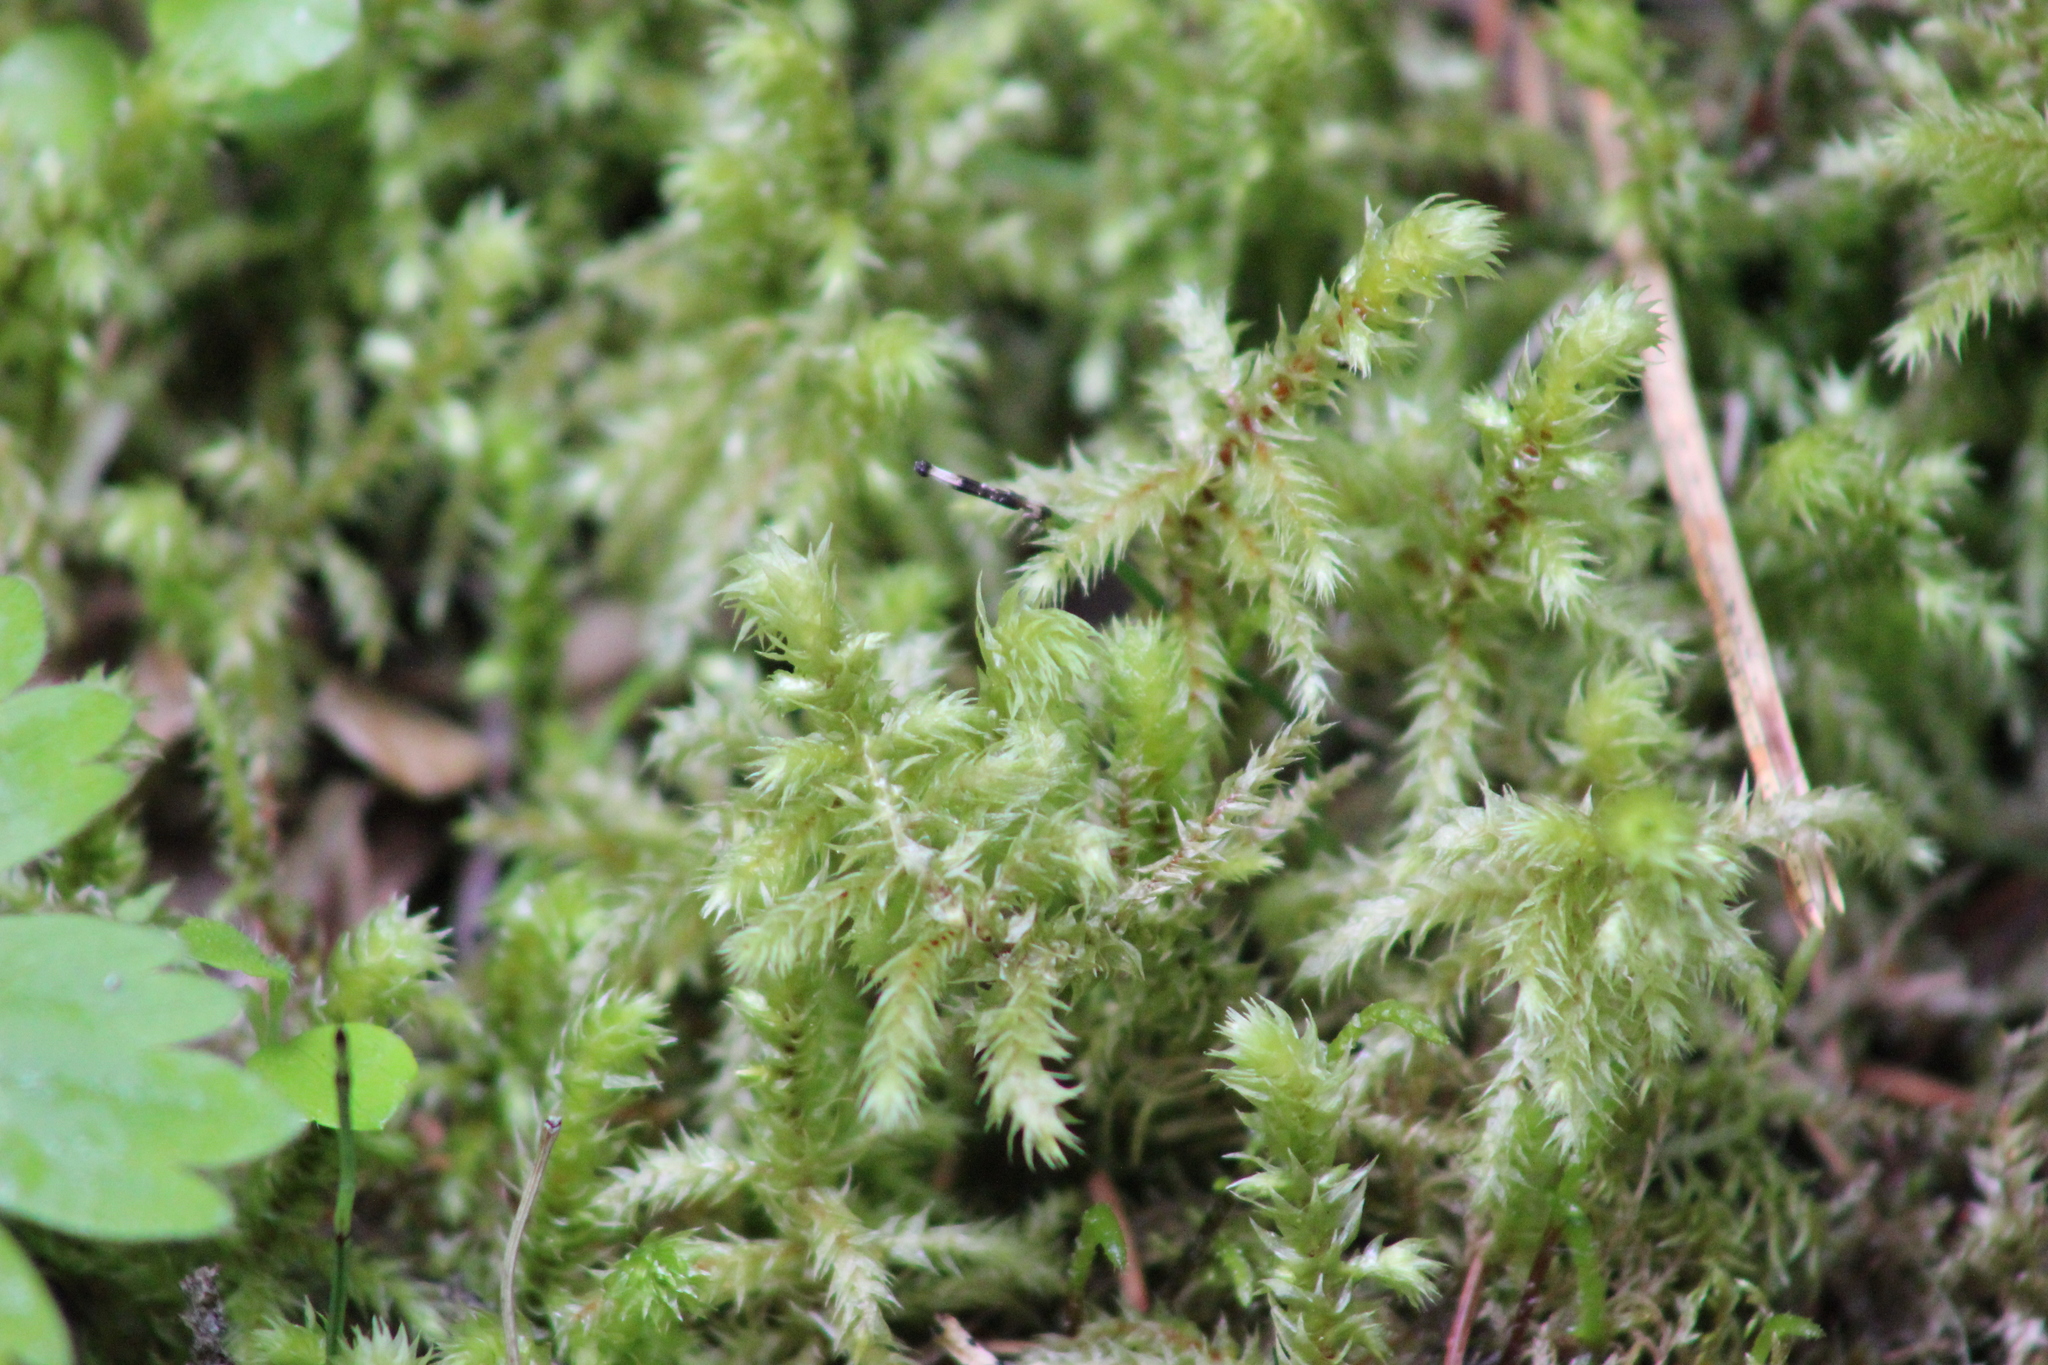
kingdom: Plantae
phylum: Bryophyta
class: Bryopsida
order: Hypnales
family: Hylocomiaceae
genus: Hylocomiadelphus
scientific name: Hylocomiadelphus triquetrus
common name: Rough goose neck moss
